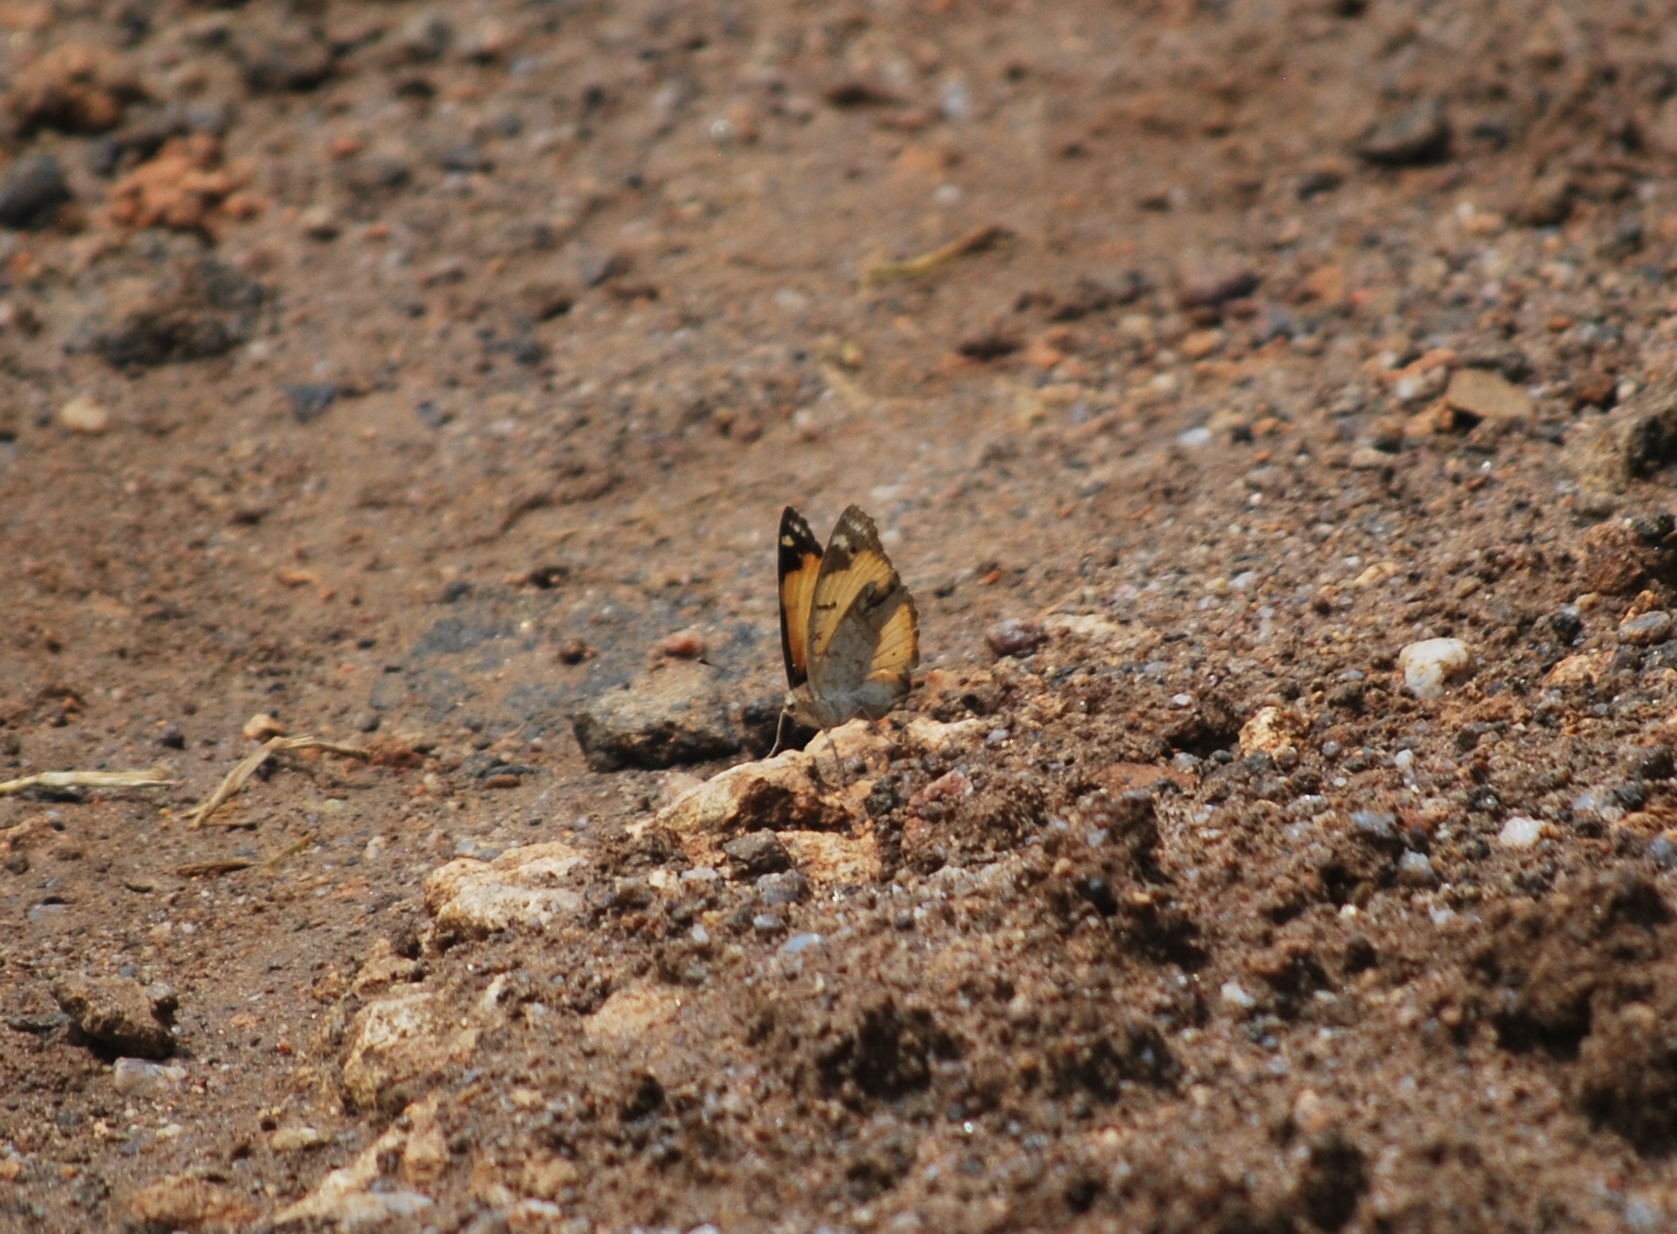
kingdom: Animalia
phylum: Arthropoda
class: Insecta
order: Lepidoptera
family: Nymphalidae
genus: Junonia
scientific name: Junonia hierta
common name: Yellow pansy
